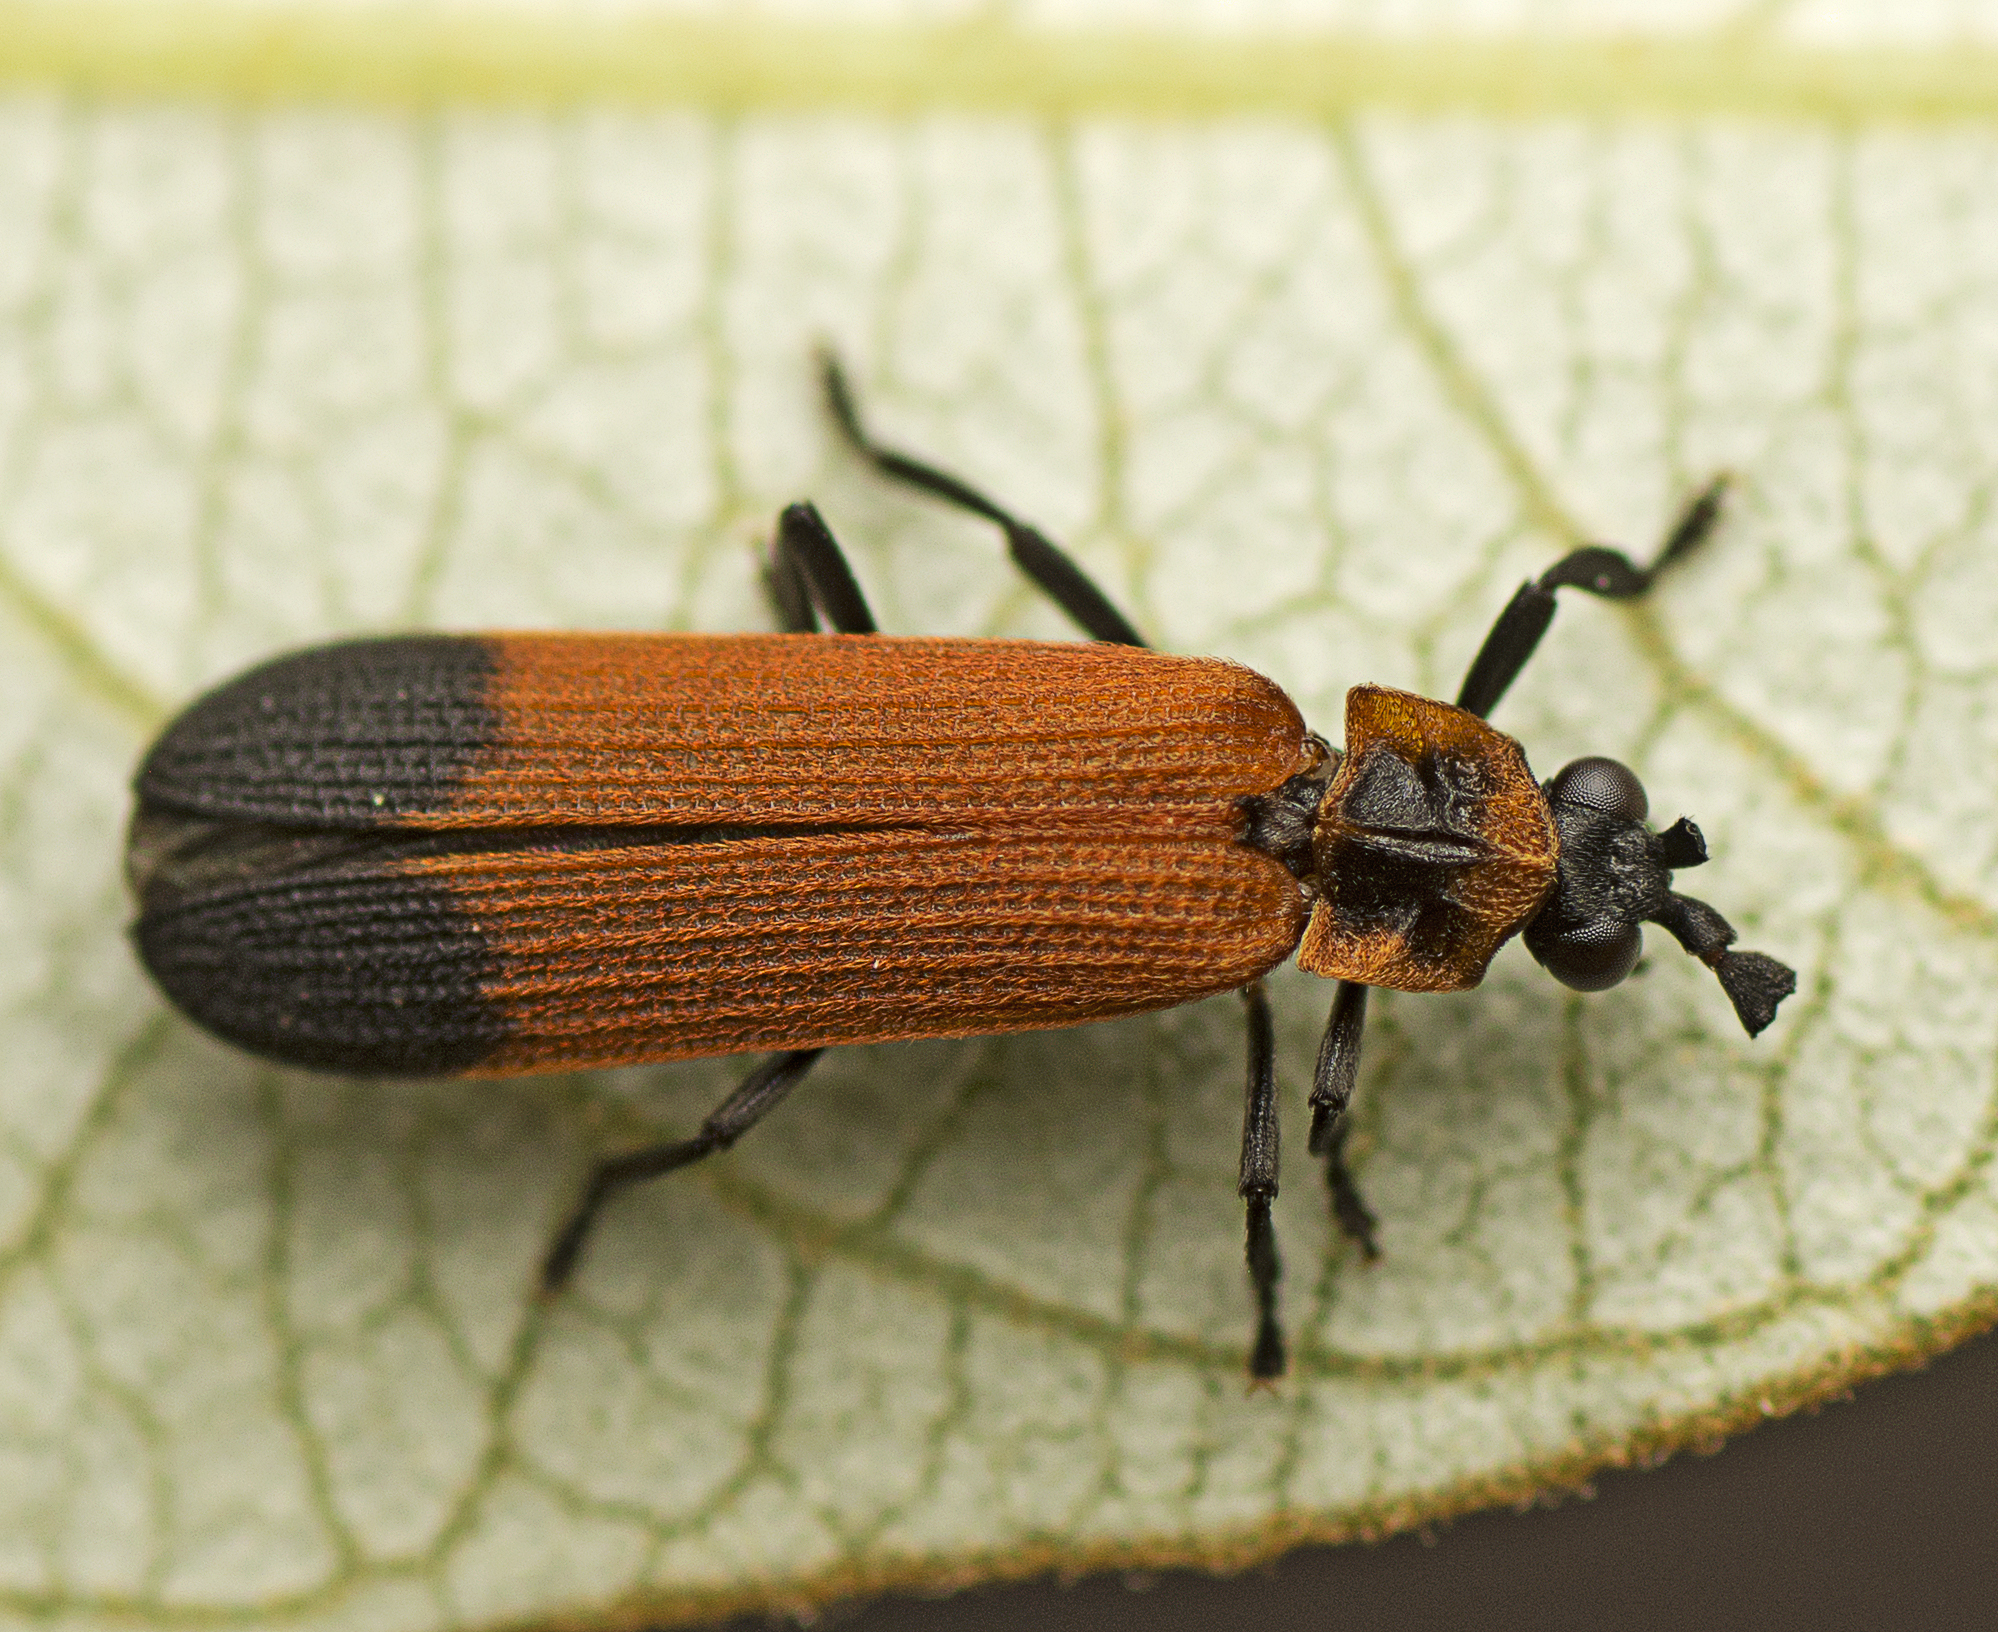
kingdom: Animalia
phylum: Arthropoda
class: Insecta
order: Coleoptera
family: Lycidae
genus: Cladophorus
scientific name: Cladophorus
